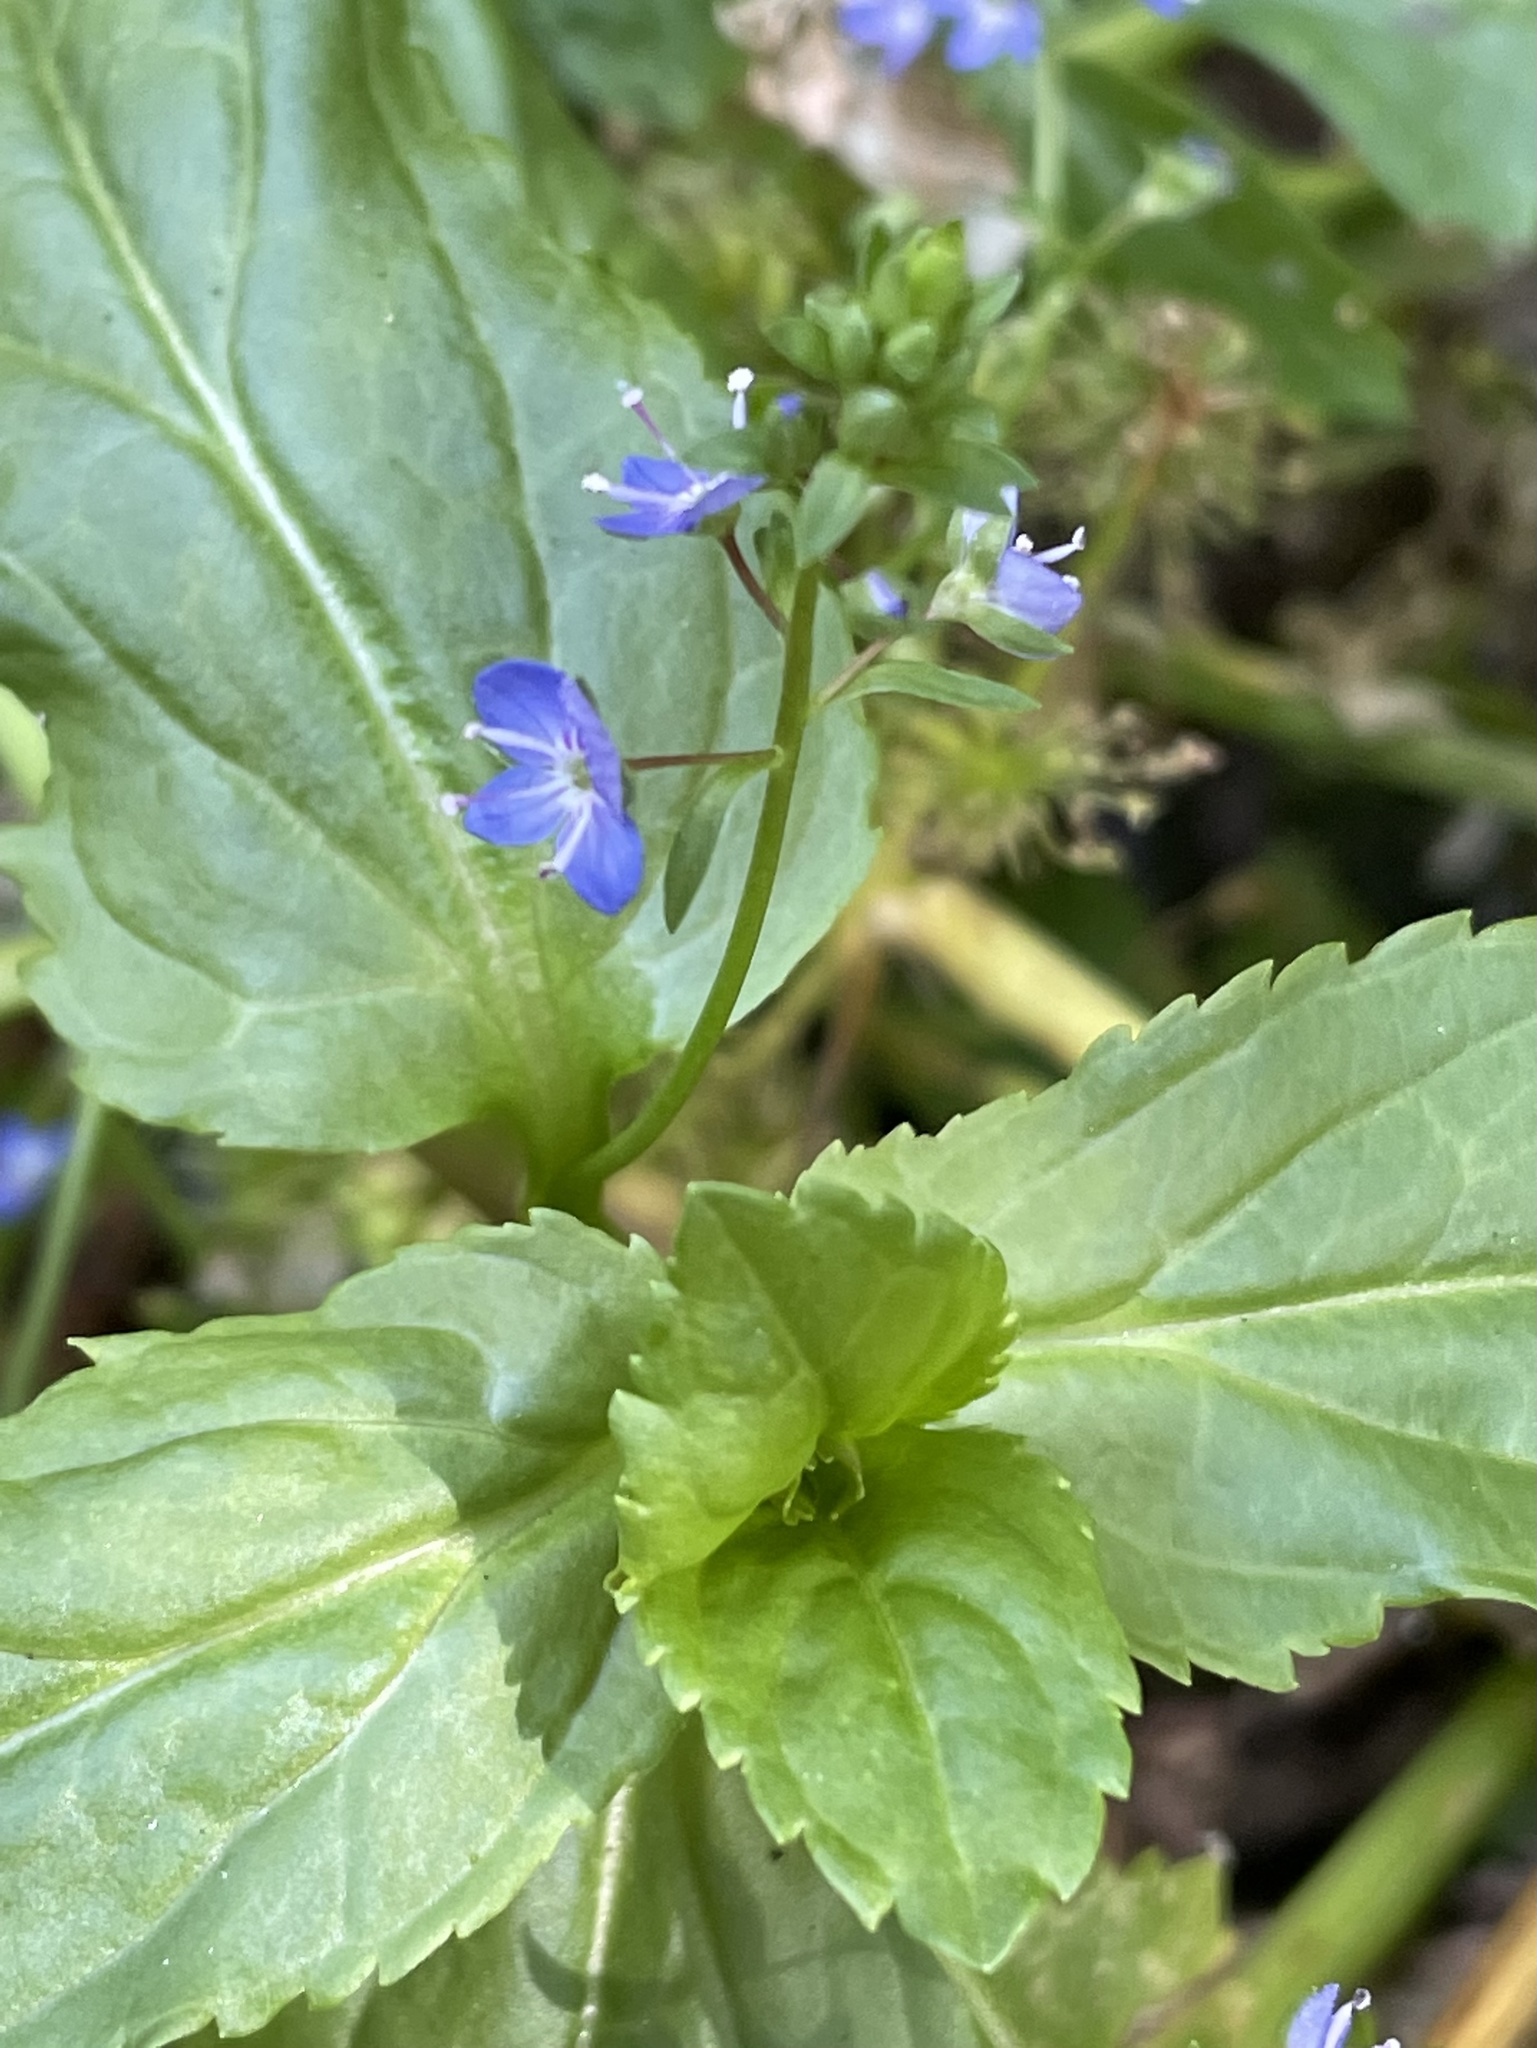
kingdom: Plantae
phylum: Tracheophyta
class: Magnoliopsida
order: Lamiales
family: Plantaginaceae
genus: Veronica
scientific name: Veronica americana
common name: American brooklime
